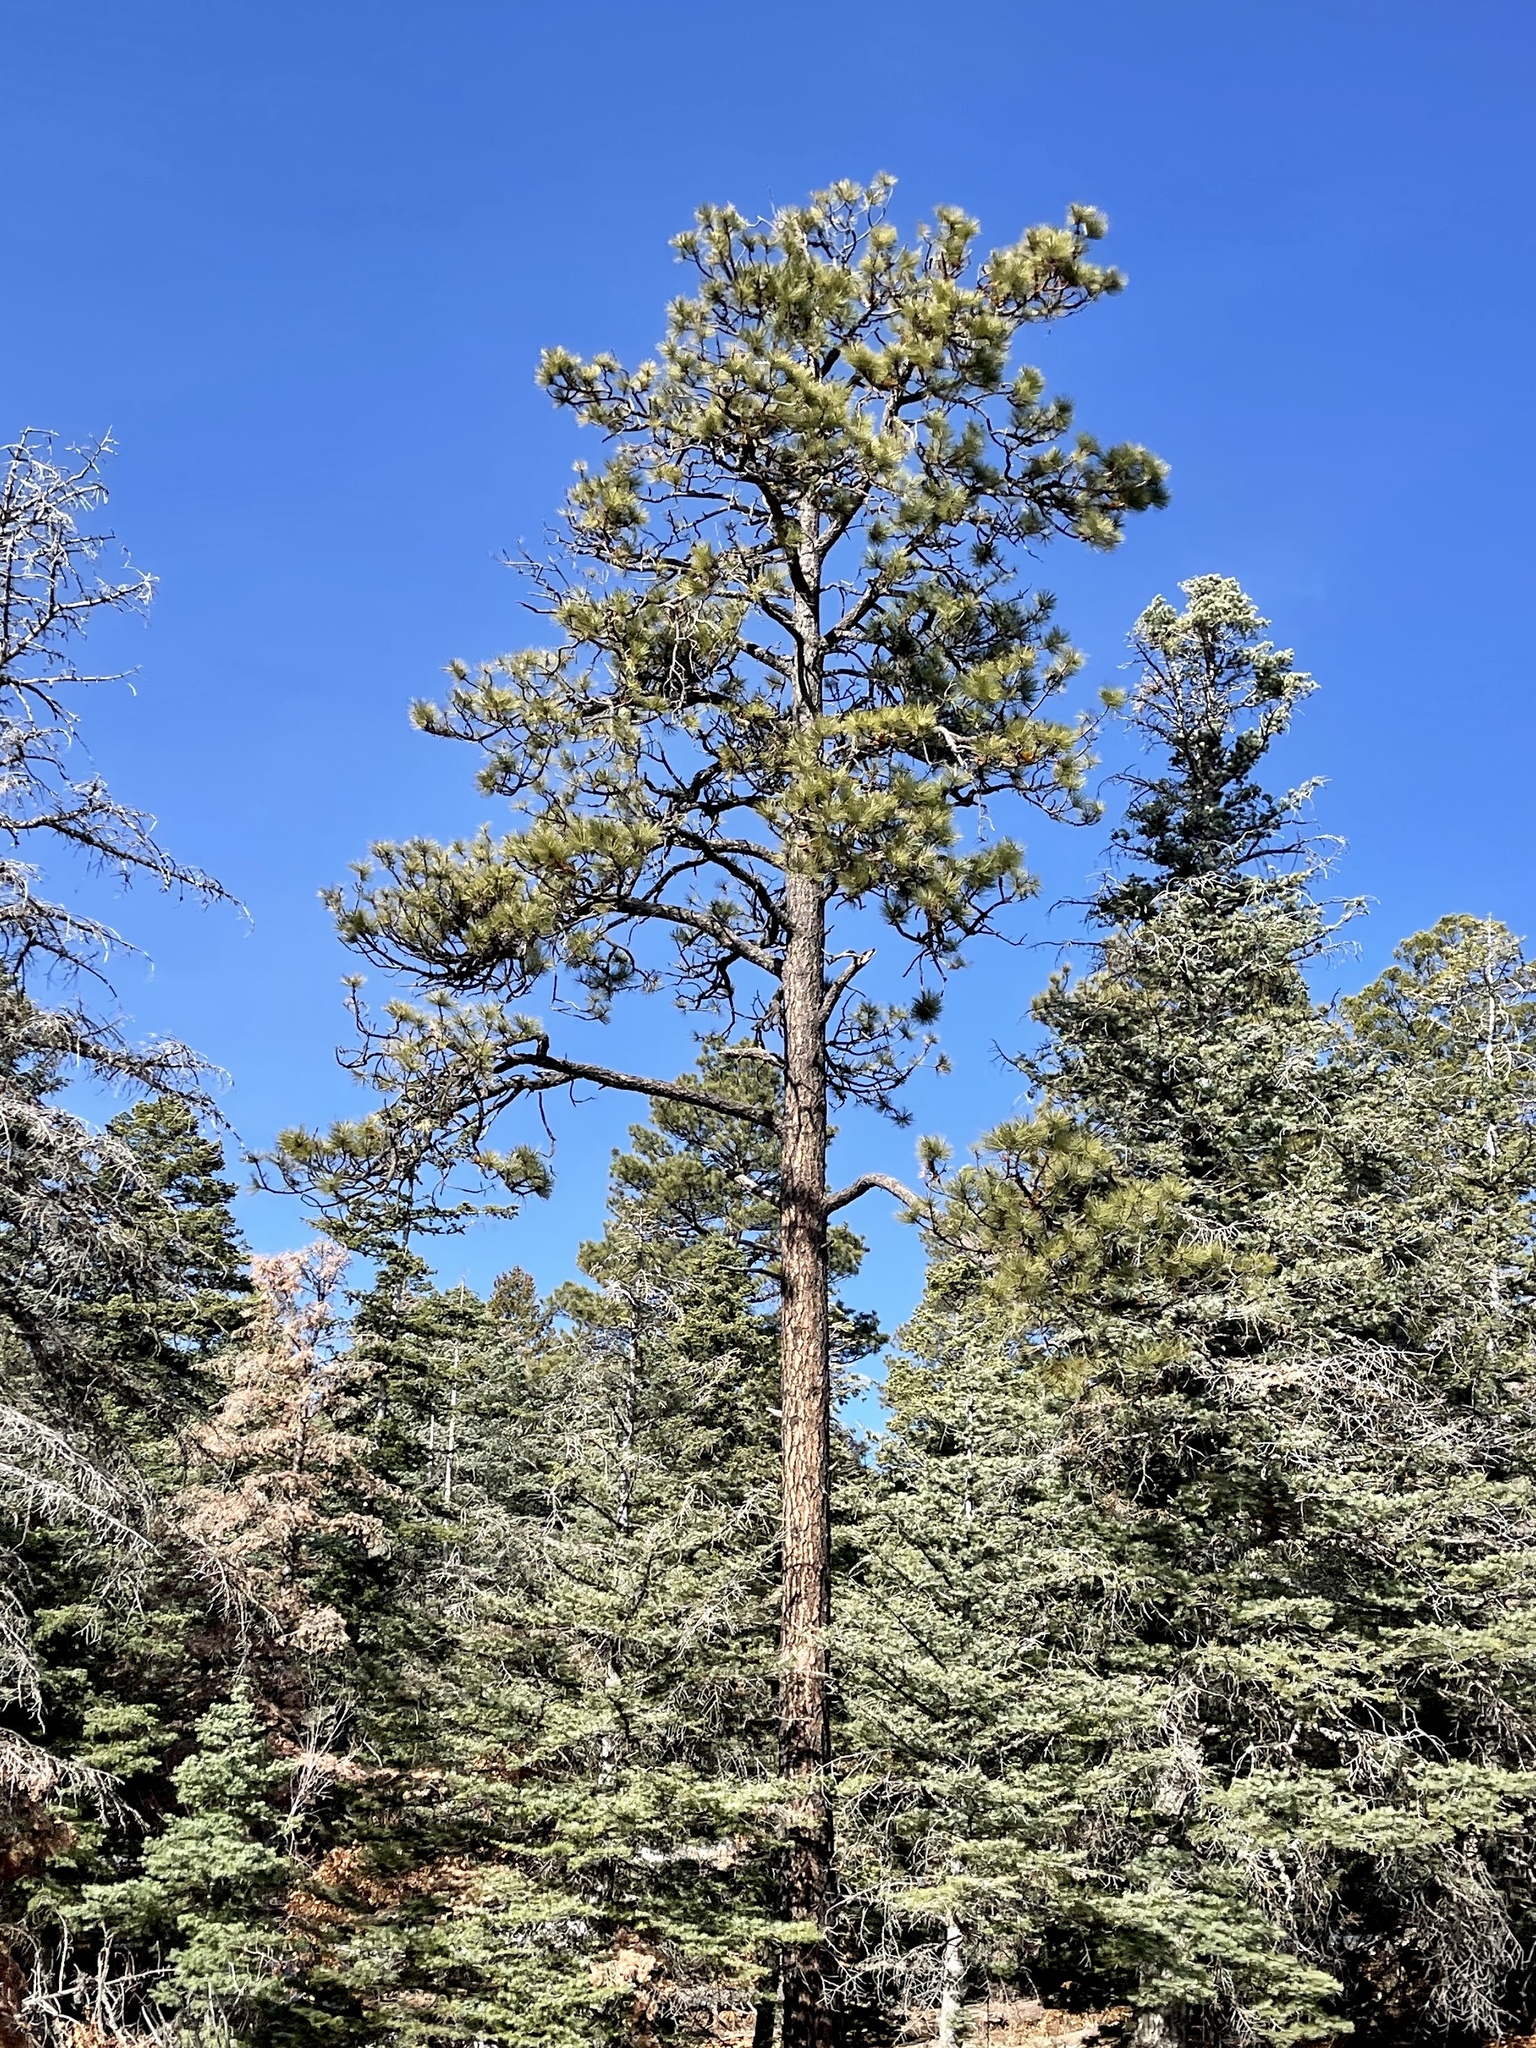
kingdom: Plantae
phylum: Tracheophyta
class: Pinopsida
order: Pinales
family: Pinaceae
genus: Pinus
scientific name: Pinus ponderosa
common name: Western yellow-pine
